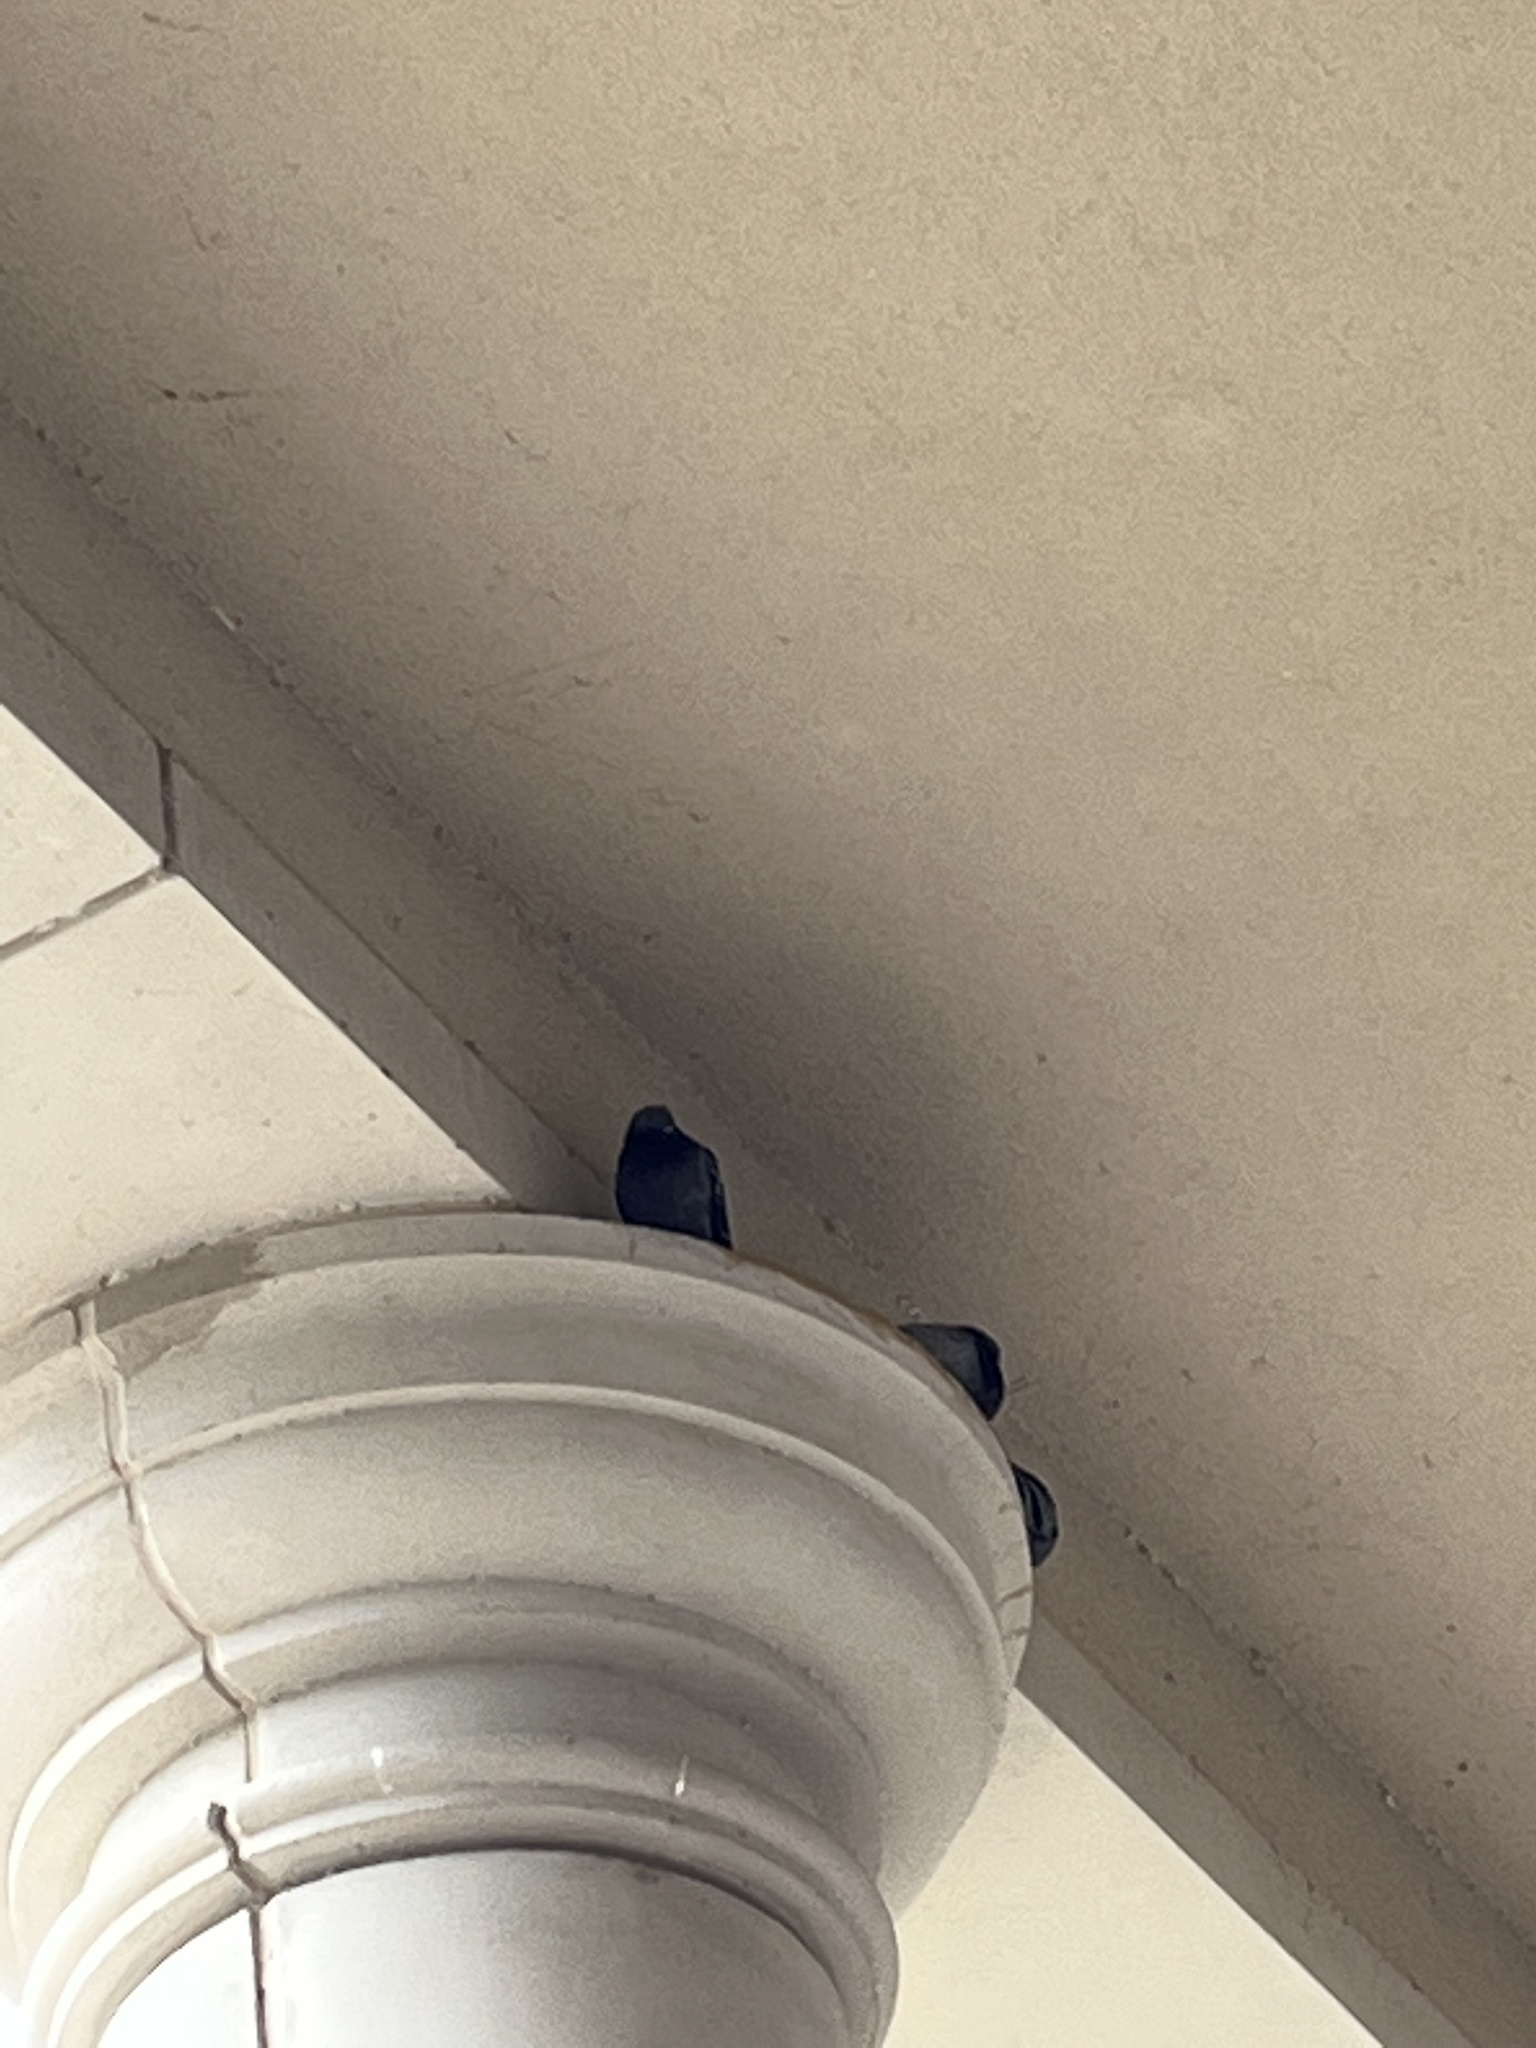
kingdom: Animalia
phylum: Chordata
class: Aves
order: Columbiformes
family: Columbidae
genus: Columba
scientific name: Columba livia
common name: Rock pigeon
